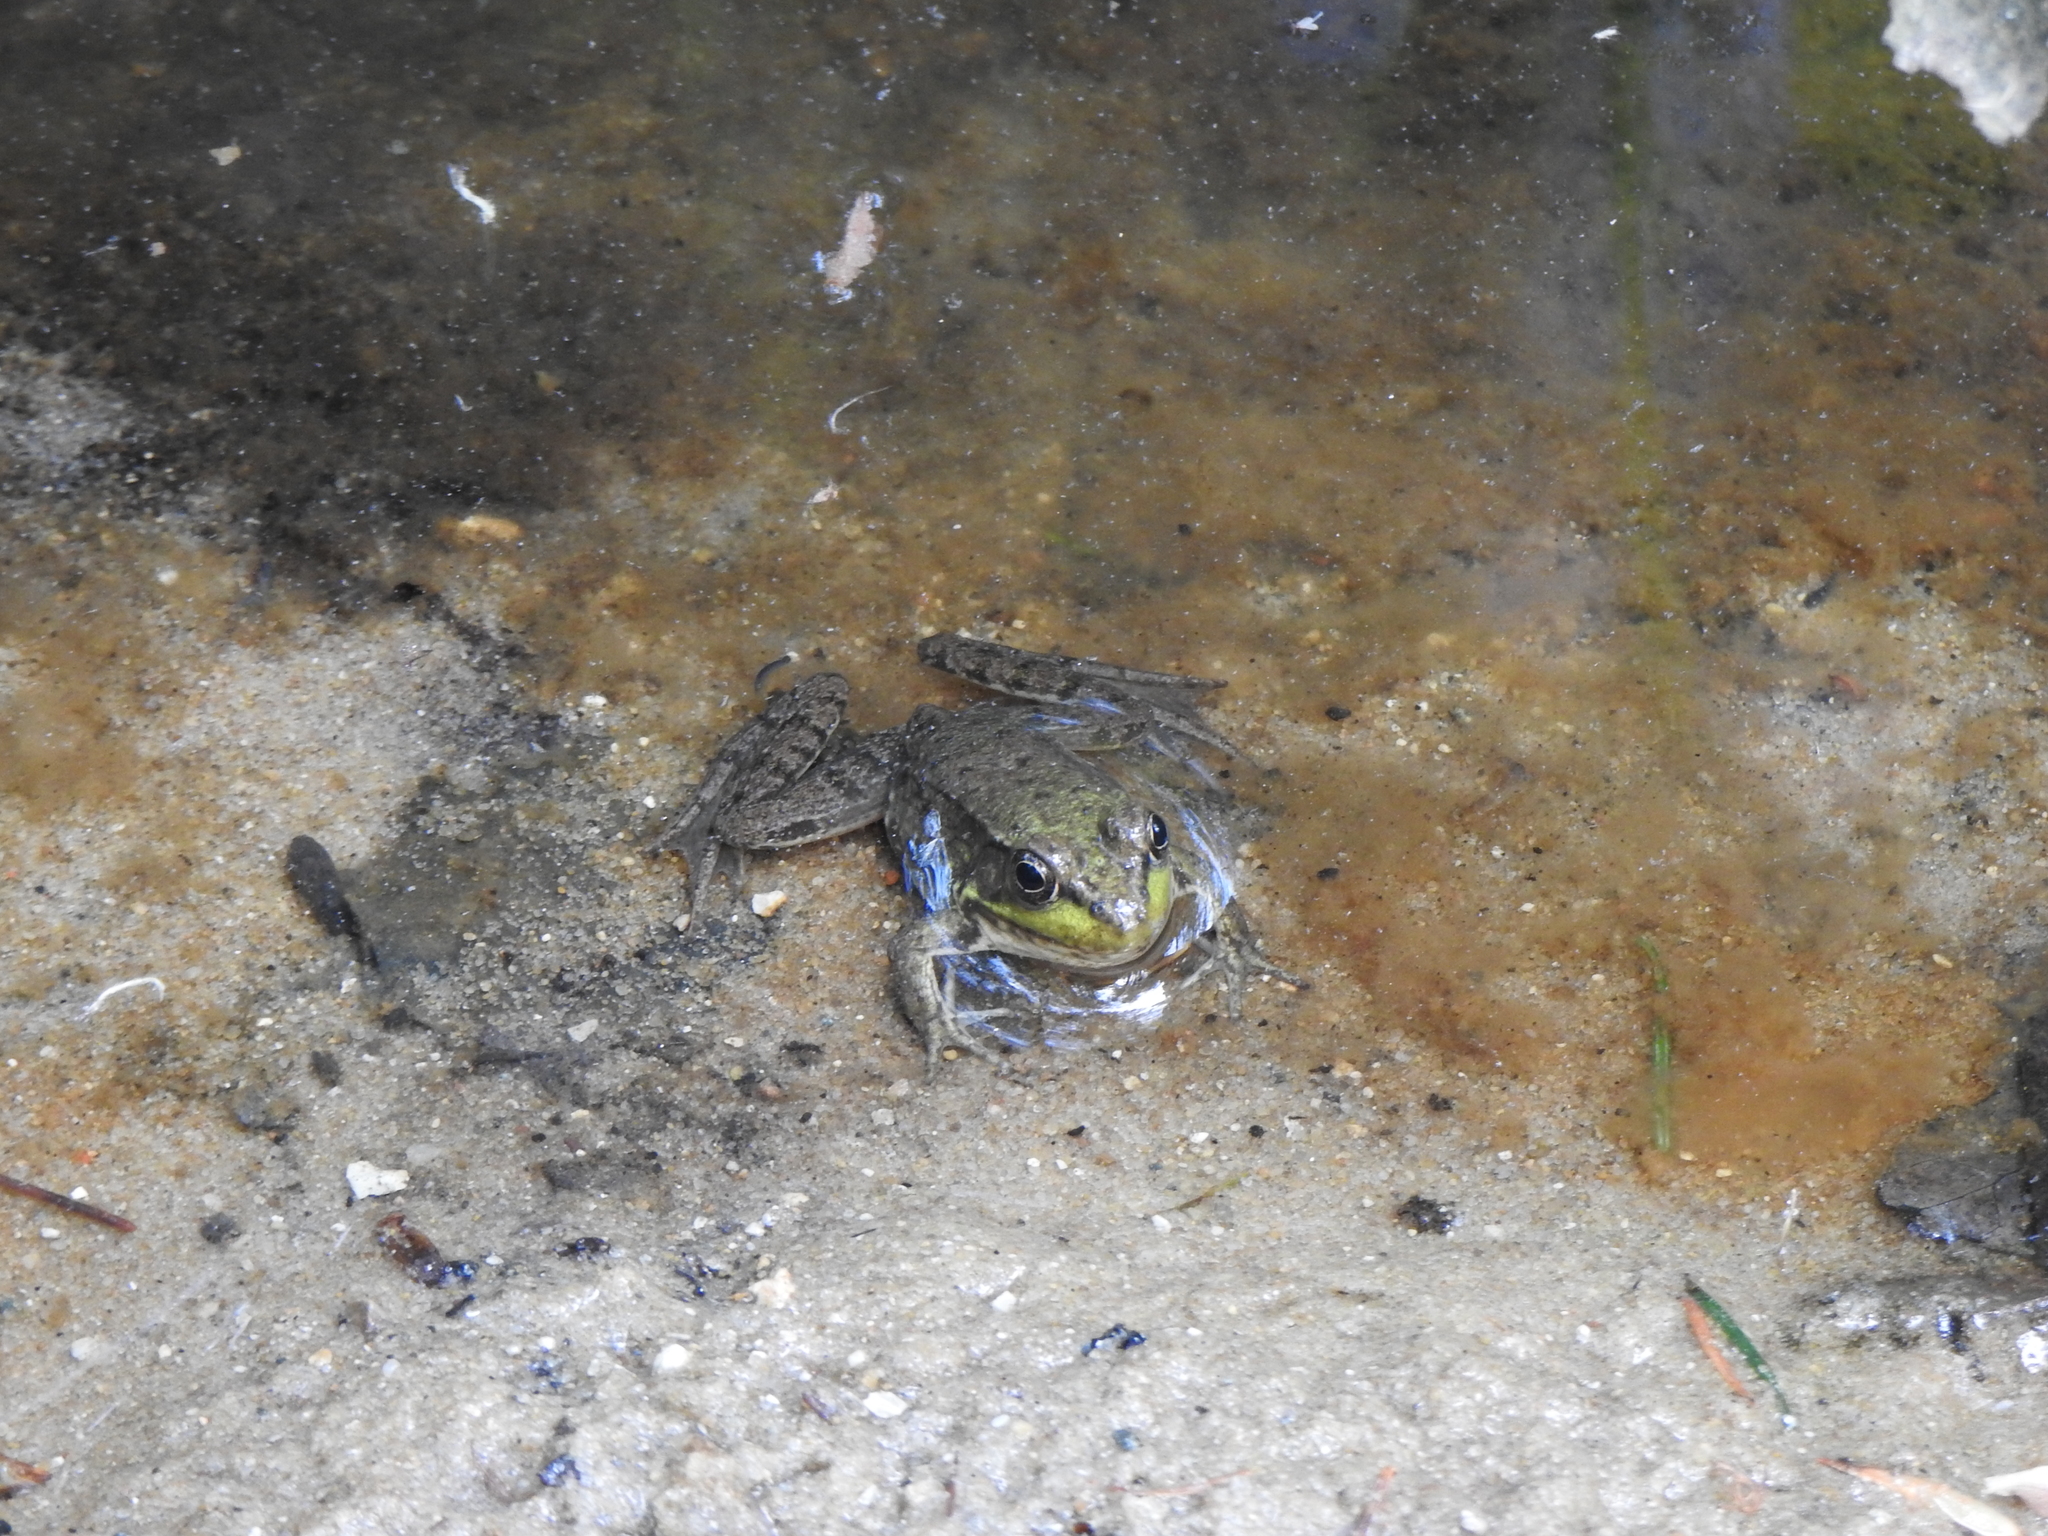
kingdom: Animalia
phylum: Chordata
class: Amphibia
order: Anura
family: Ranidae
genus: Lithobates
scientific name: Lithobates clamitans
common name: Green frog
